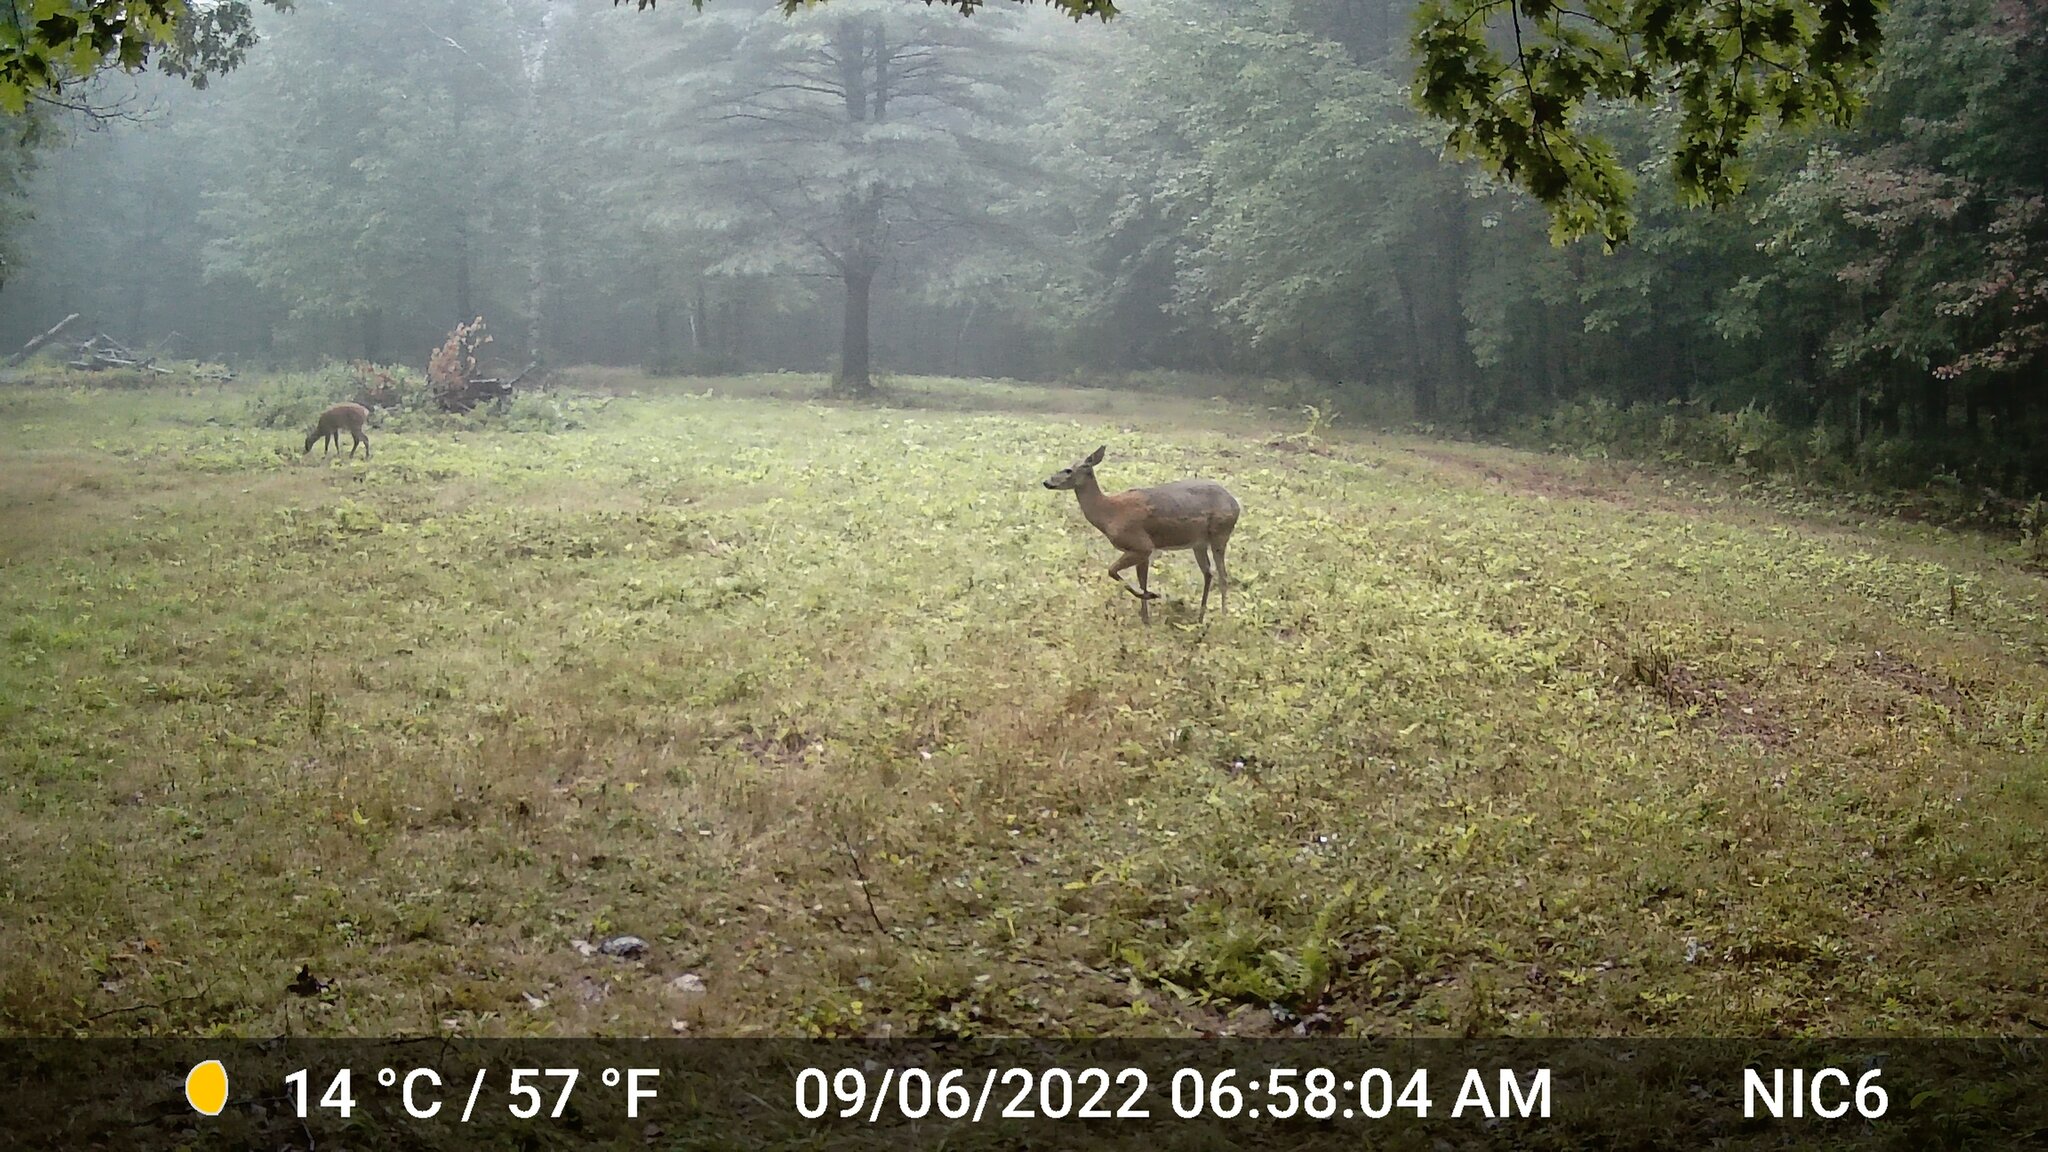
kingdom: Animalia
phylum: Chordata
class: Mammalia
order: Artiodactyla
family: Cervidae
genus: Odocoileus
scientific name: Odocoileus virginianus
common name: White-tailed deer
